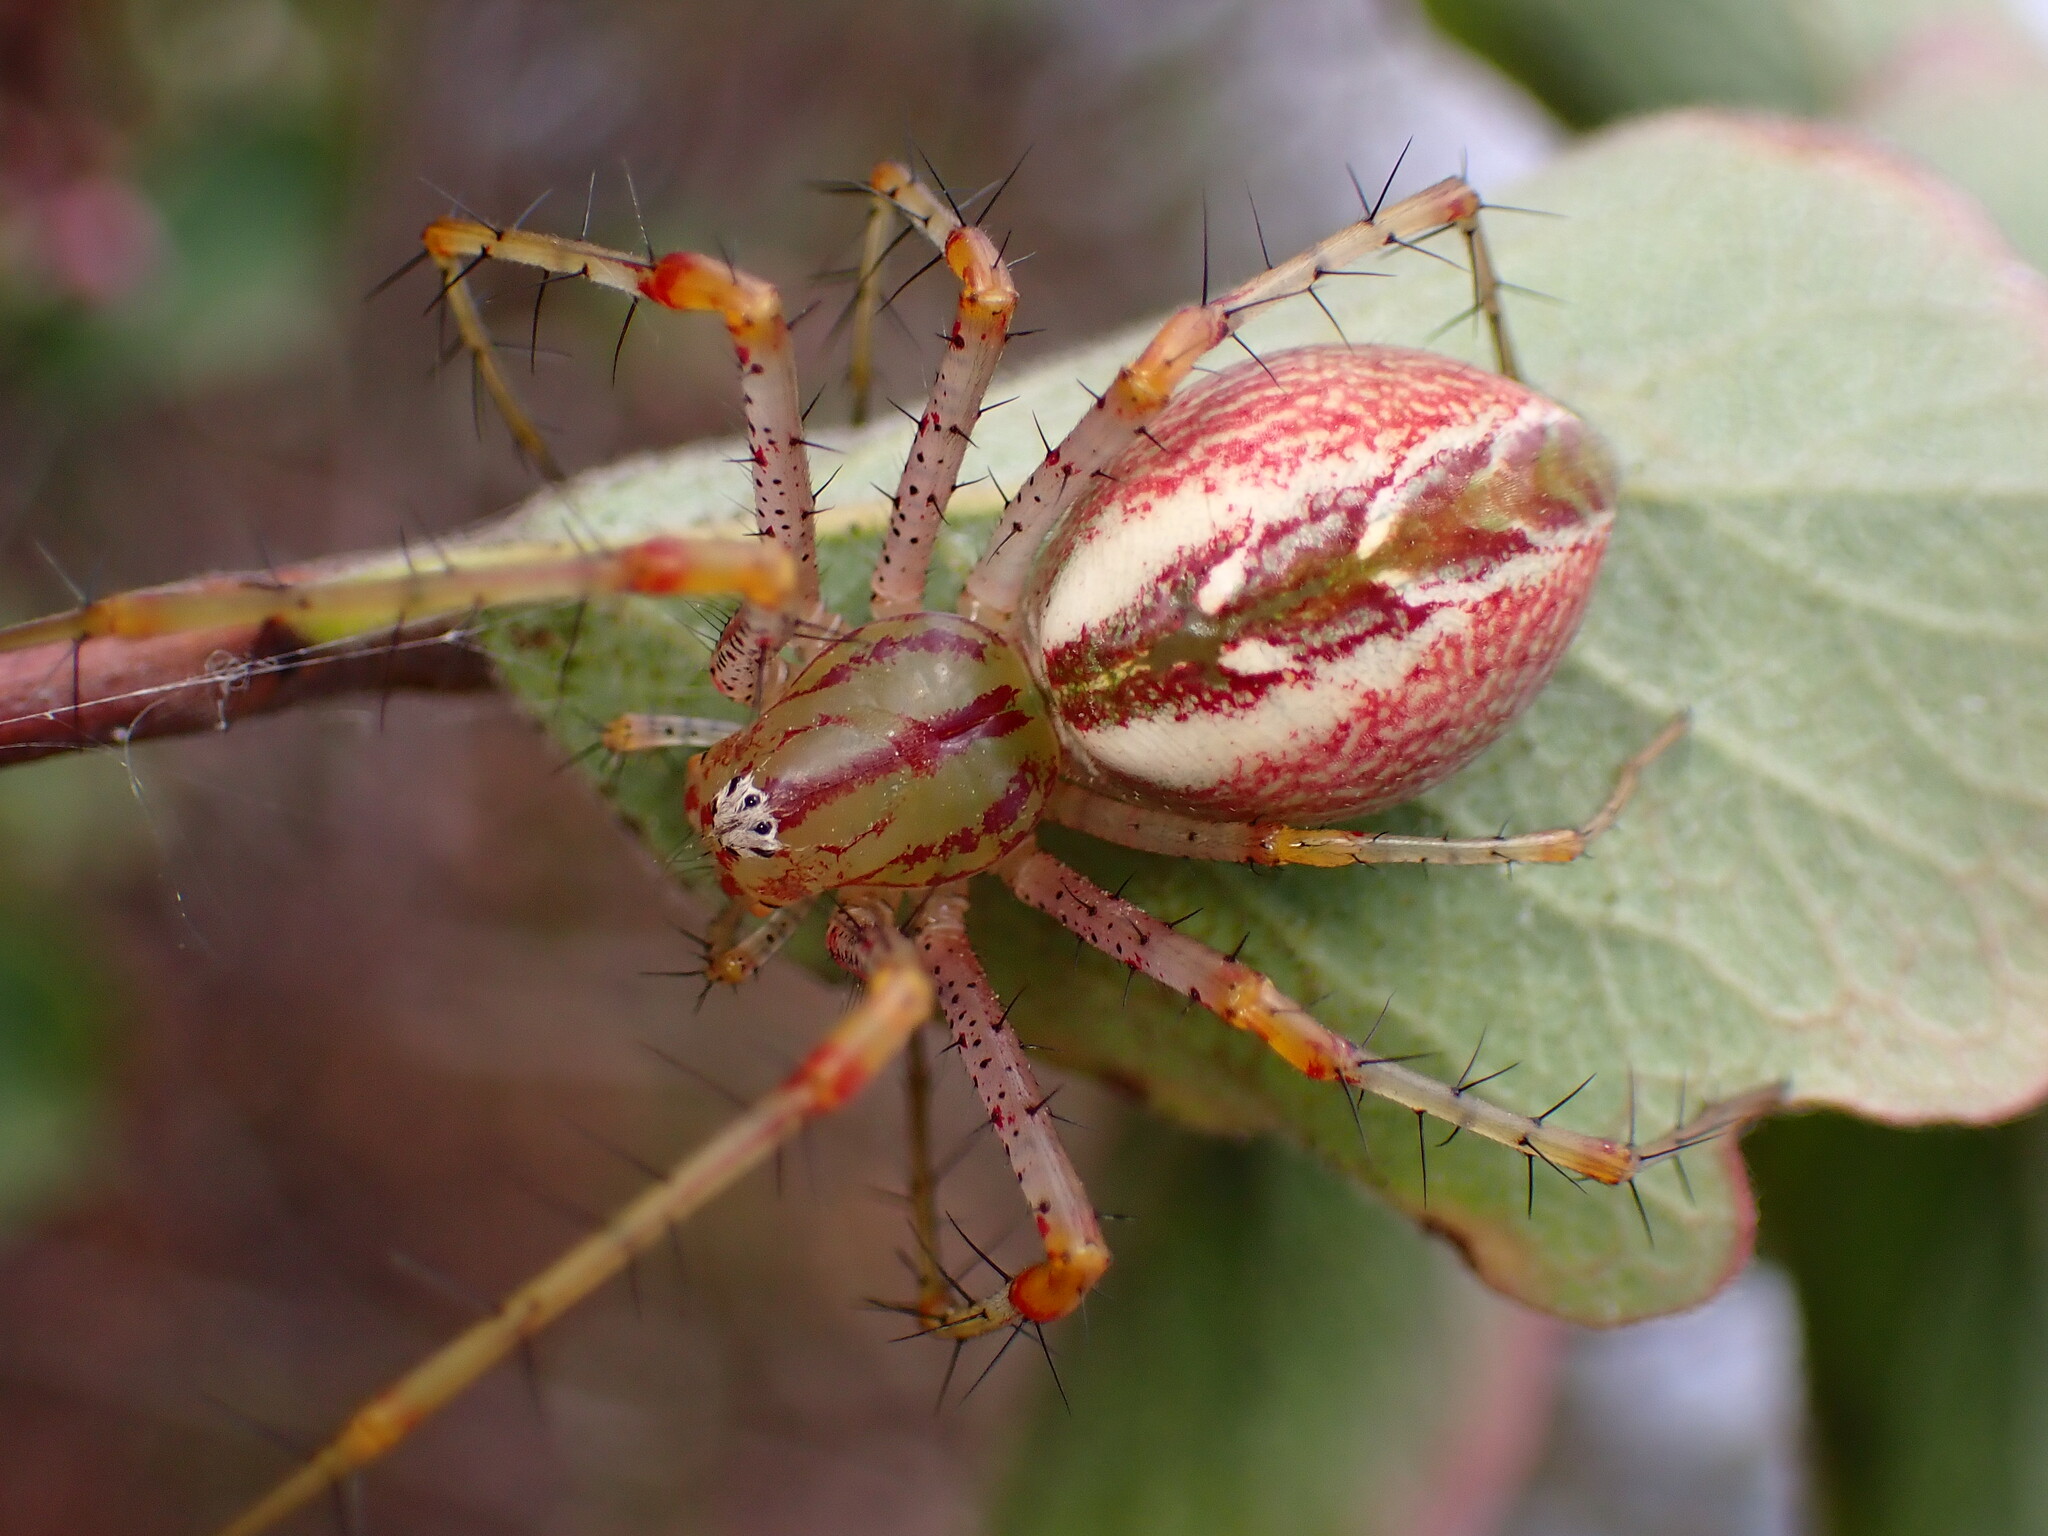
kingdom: Animalia
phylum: Arthropoda
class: Arachnida
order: Araneae
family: Oxyopidae
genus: Peucetia
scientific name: Peucetia viridans
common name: Lynx spiders
